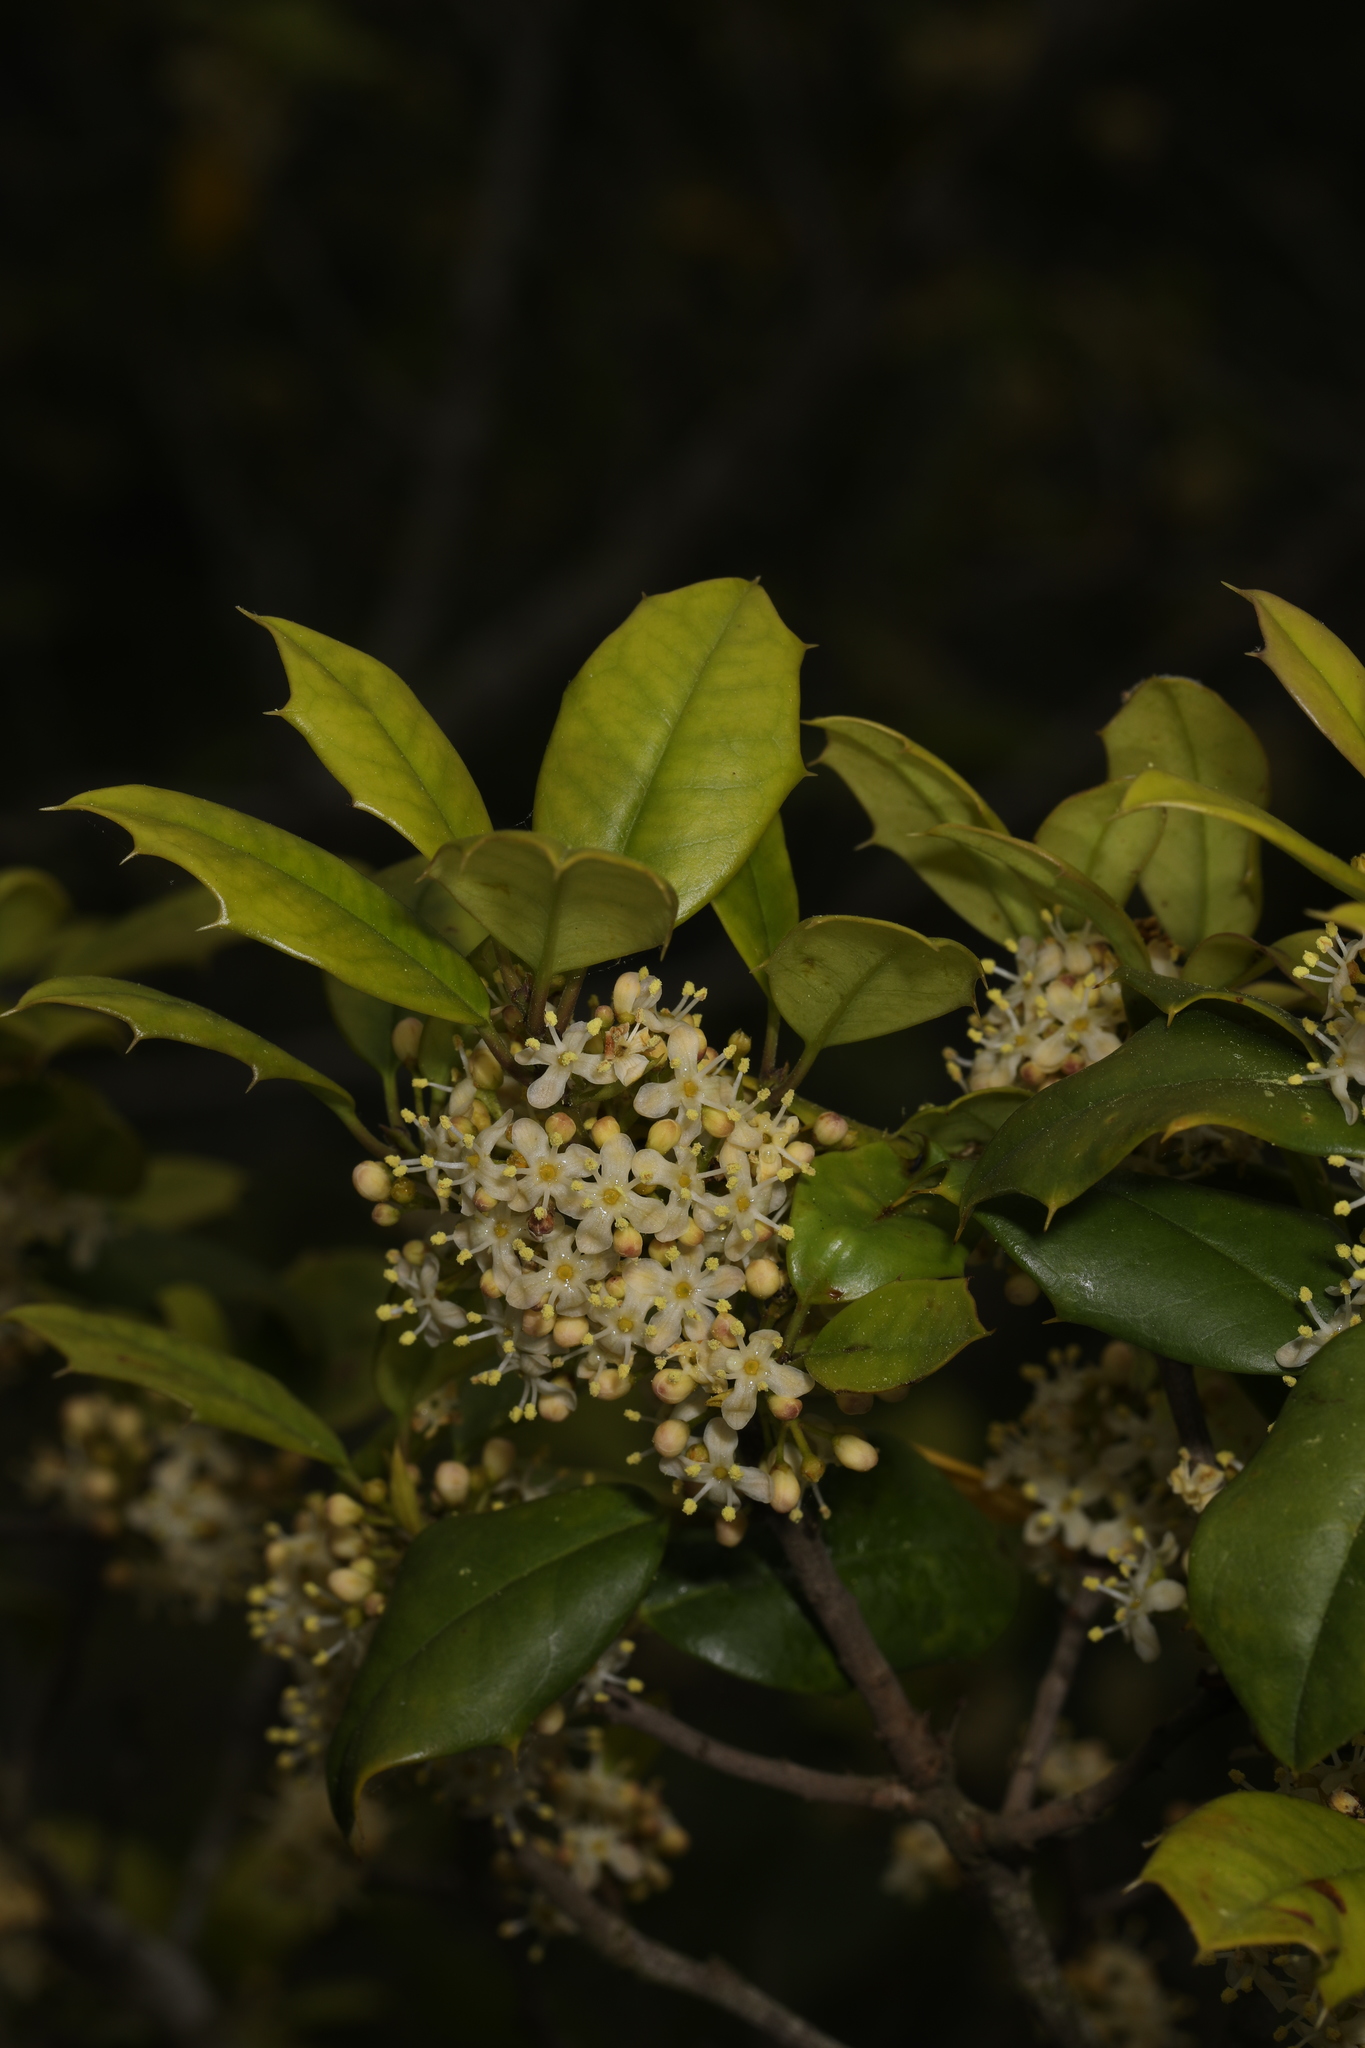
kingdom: Plantae
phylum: Tracheophyta
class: Magnoliopsida
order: Aquifoliales
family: Aquifoliaceae
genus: Ilex
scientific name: Ilex opaca
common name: American holly
